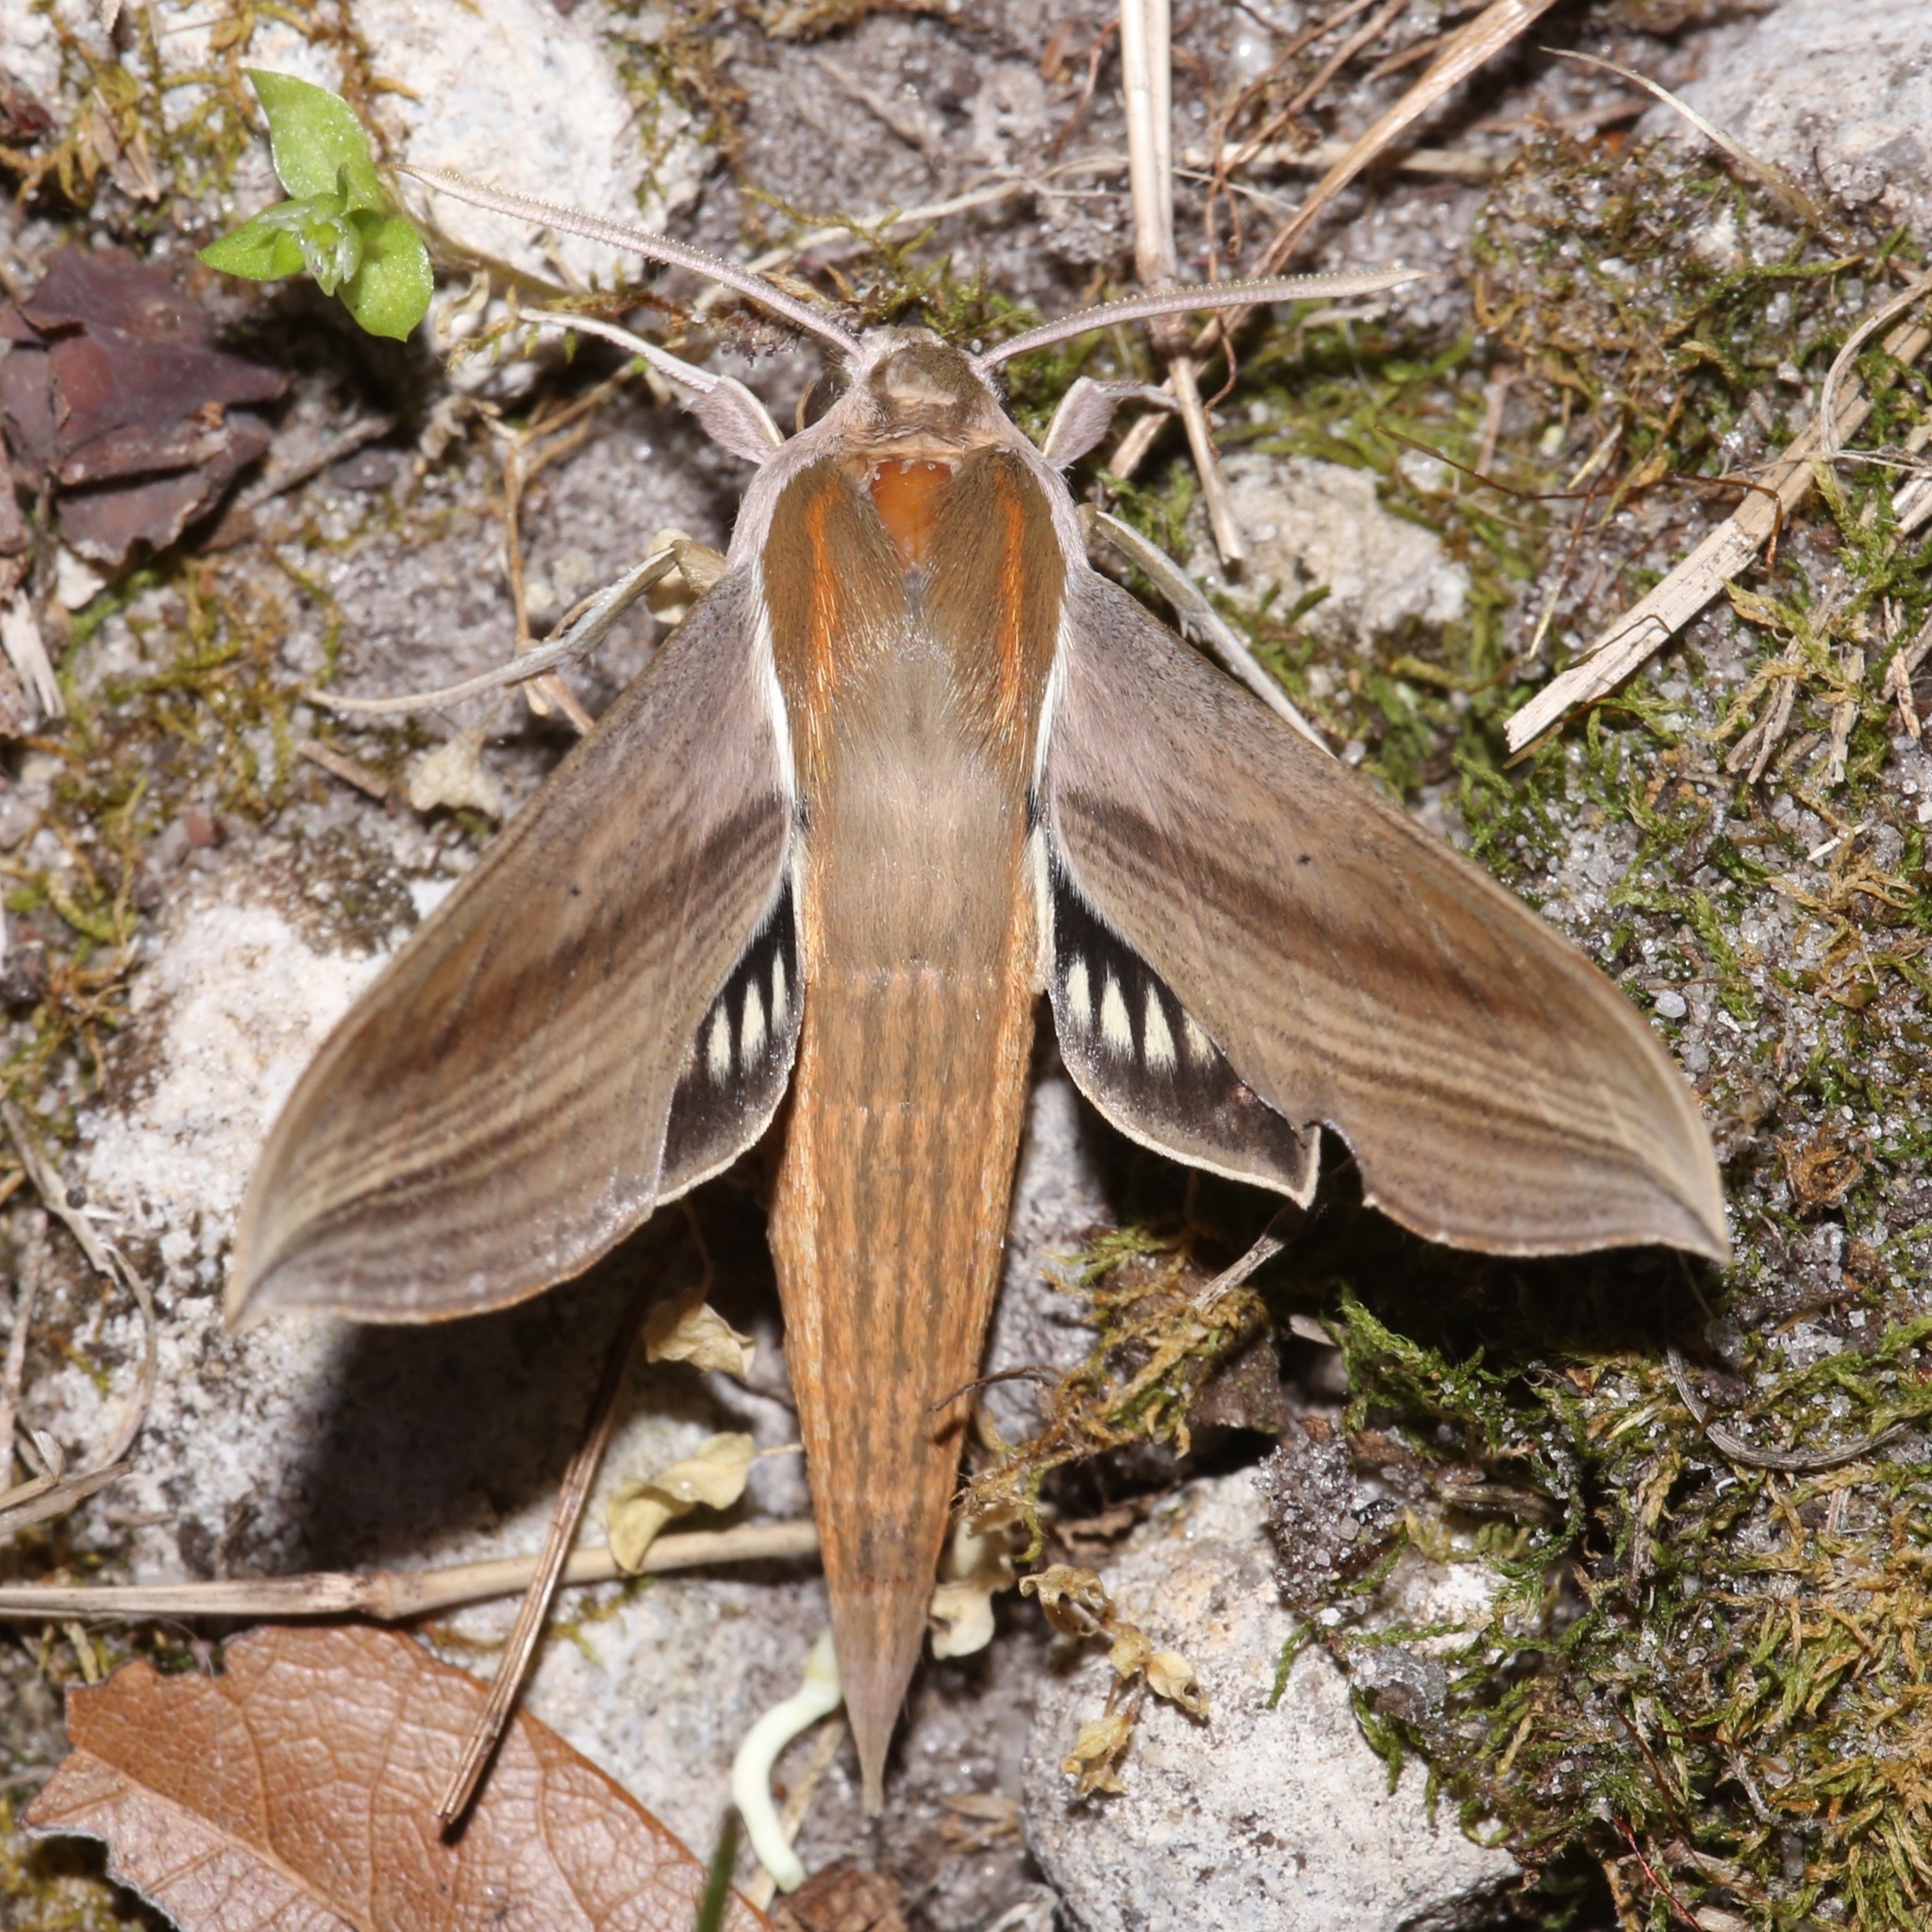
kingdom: Animalia
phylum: Arthropoda
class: Insecta
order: Lepidoptera
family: Sphingidae
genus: Xylophanes
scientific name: Xylophanes tersa
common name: Tersa sphinx
